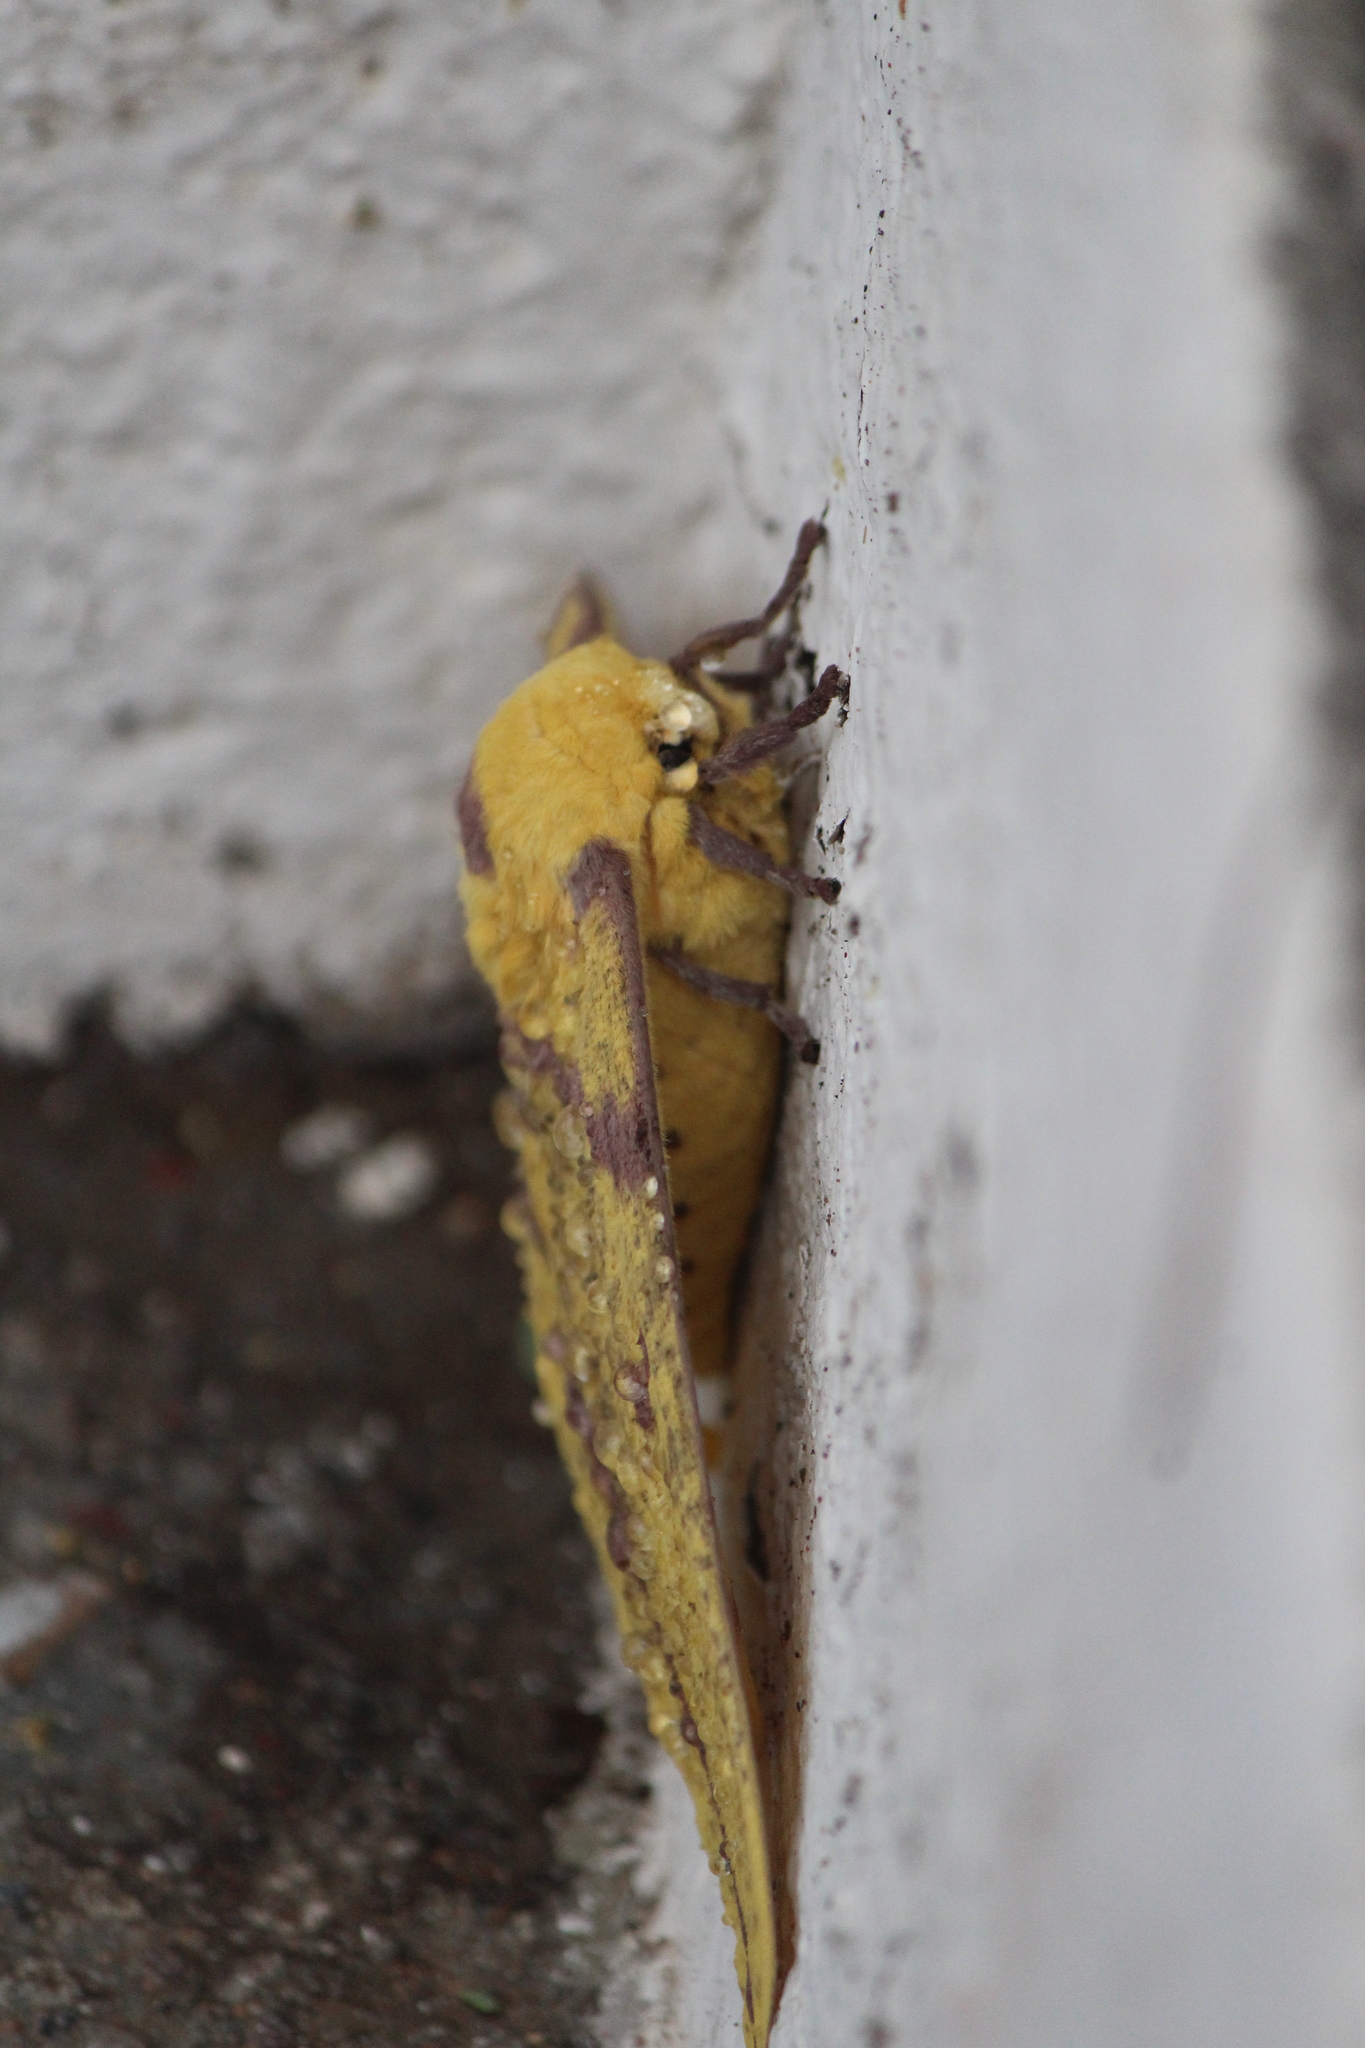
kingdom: Animalia
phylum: Arthropoda
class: Insecta
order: Lepidoptera
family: Saturniidae
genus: Eacles
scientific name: Eacles imperialis
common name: Imperial moth
